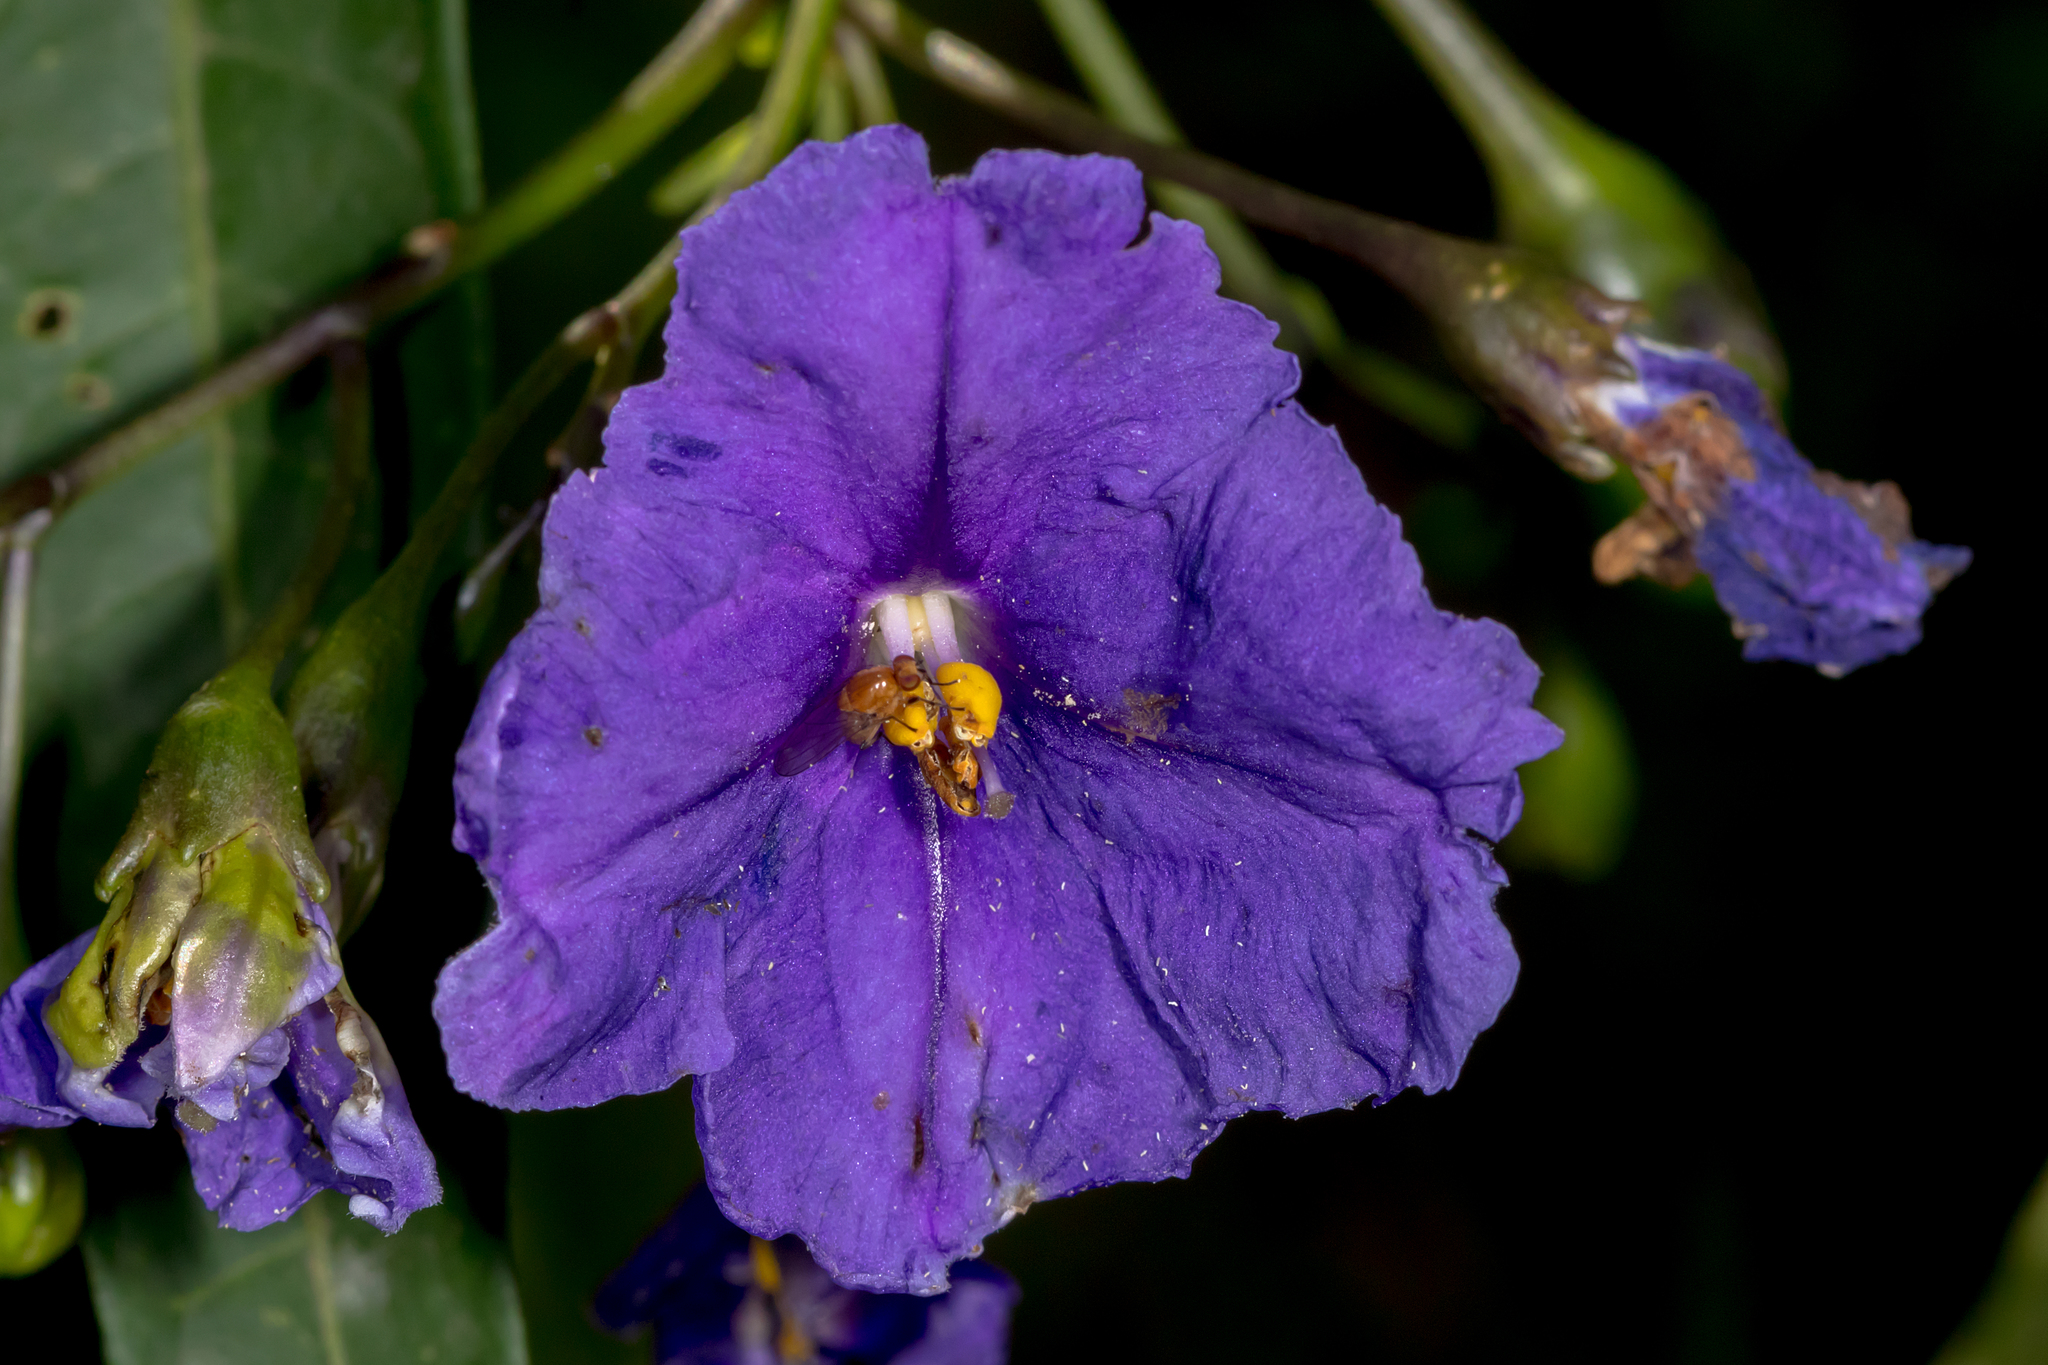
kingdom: Plantae
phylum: Tracheophyta
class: Magnoliopsida
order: Solanales
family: Solanaceae
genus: Solanum
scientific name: Solanum laciniatum
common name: Kangaroo-apple
